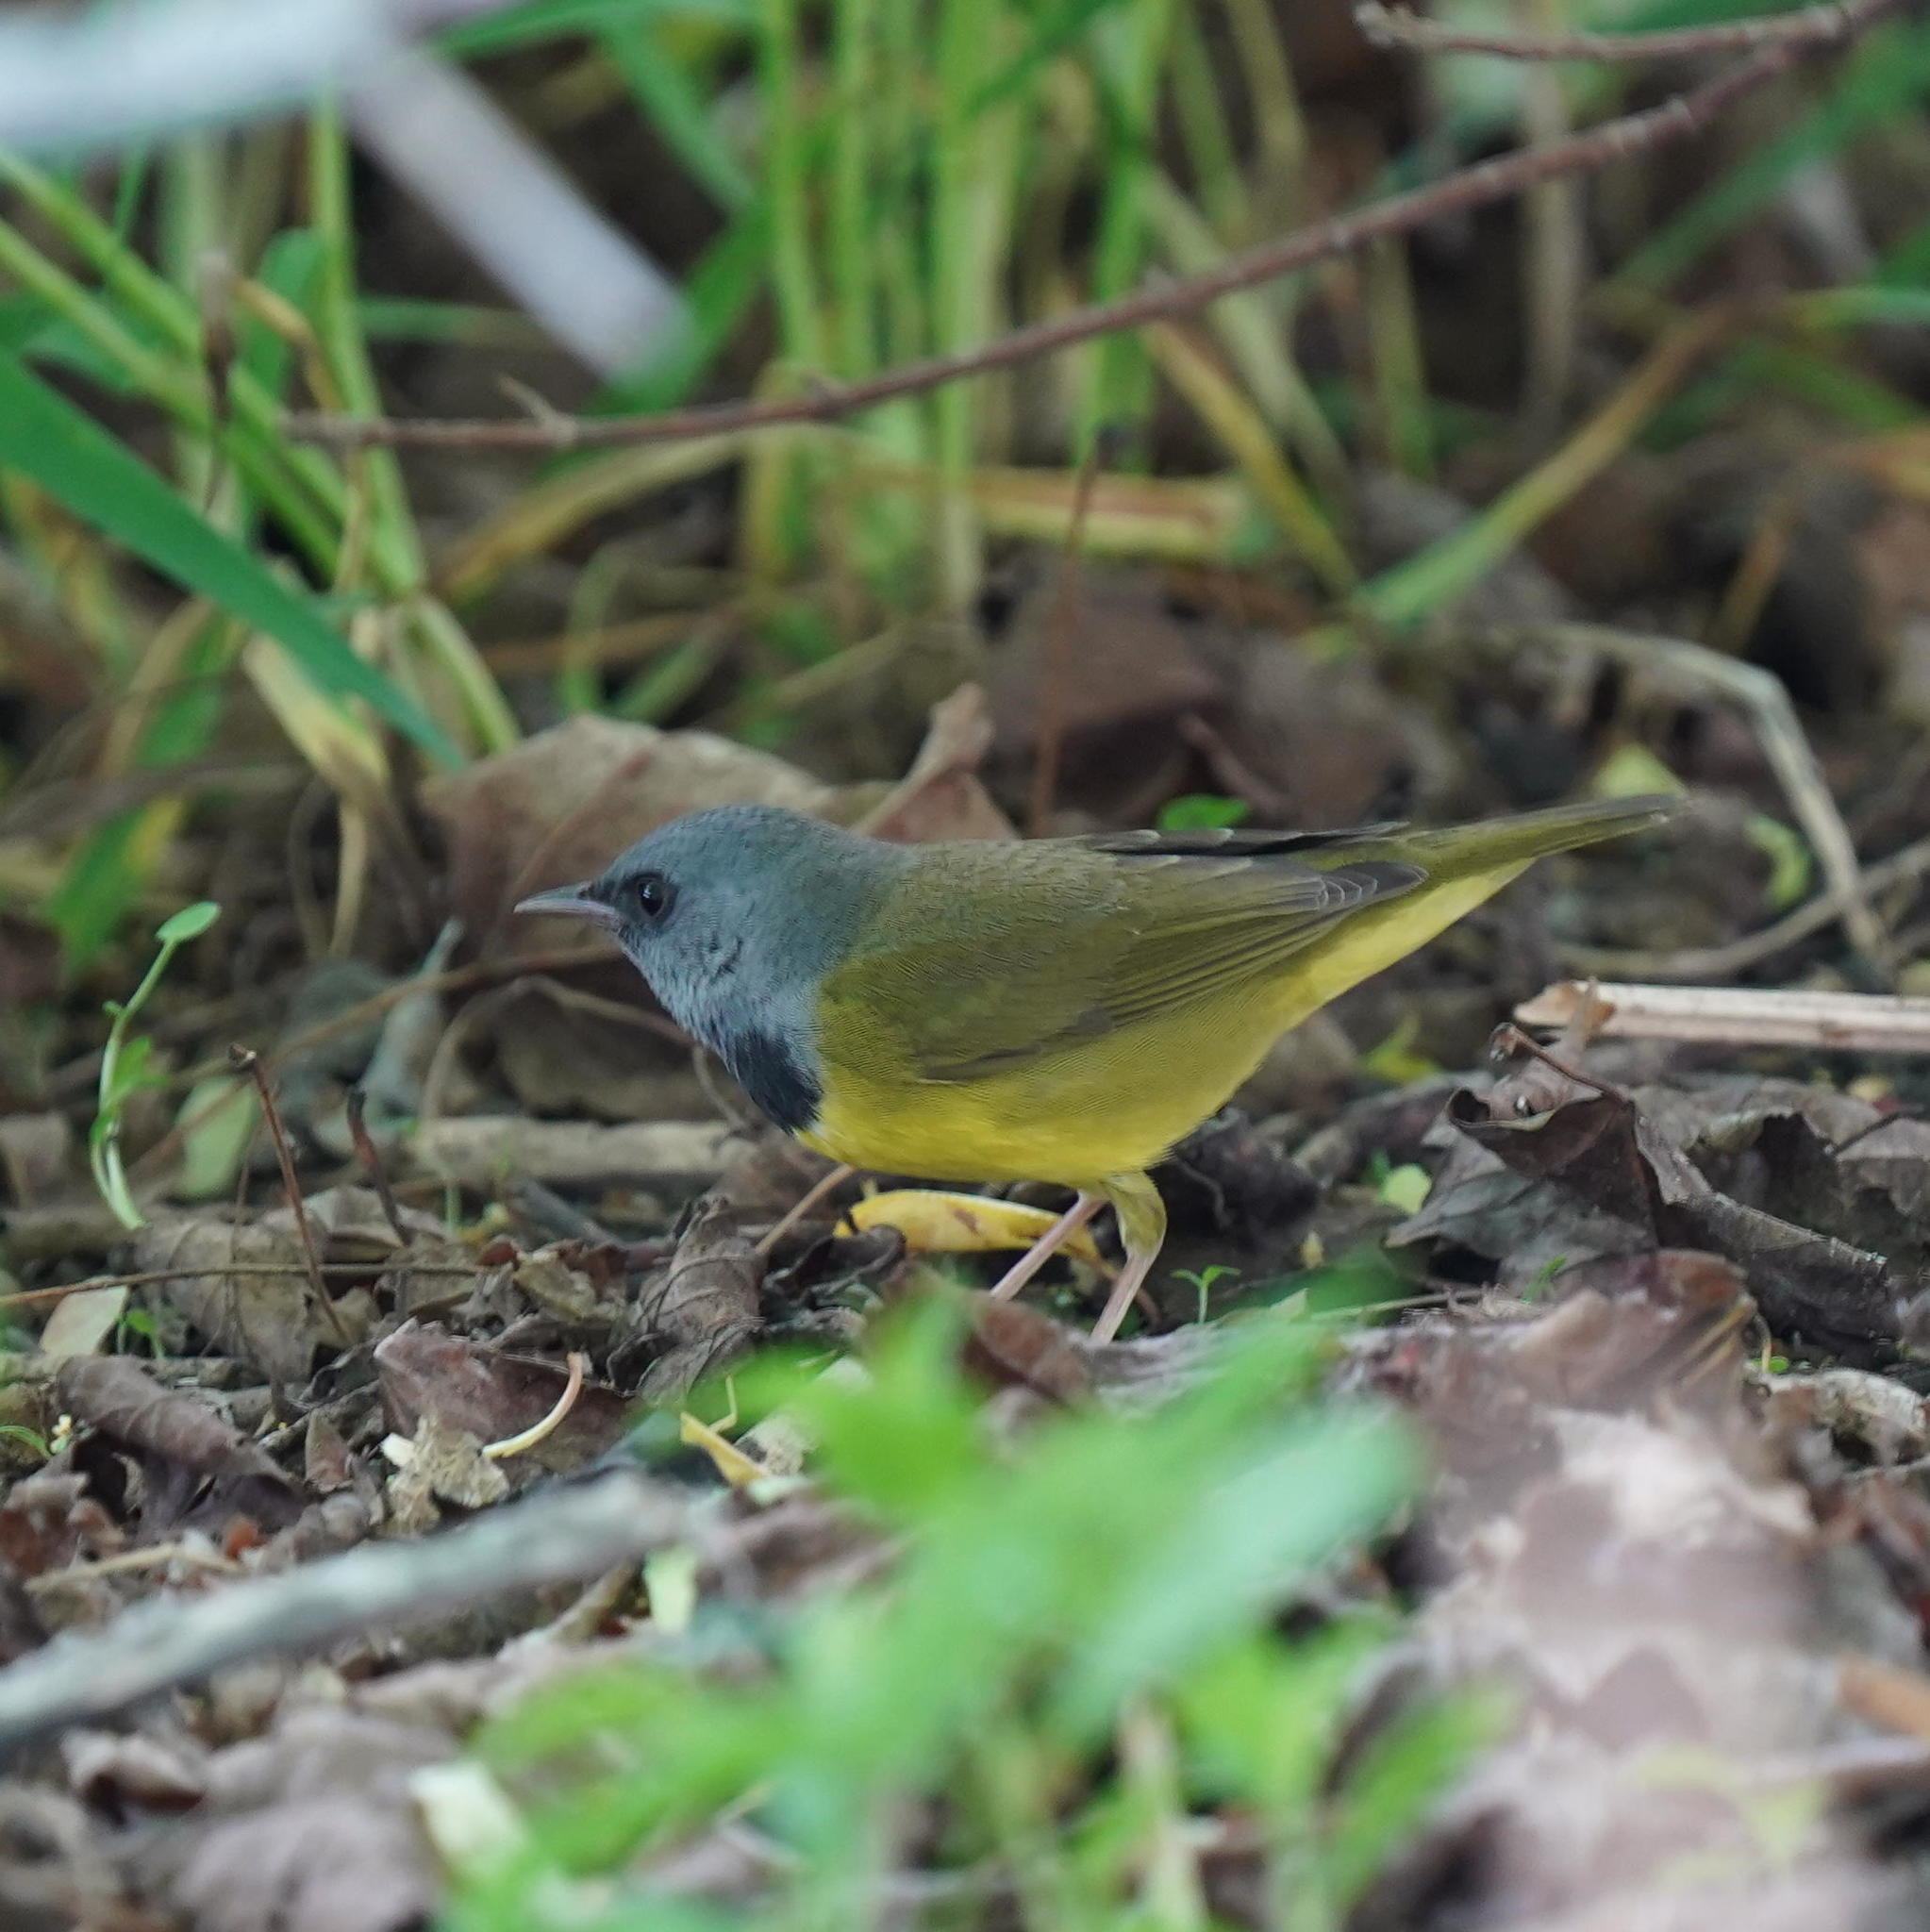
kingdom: Animalia
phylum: Chordata
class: Aves
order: Passeriformes
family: Parulidae
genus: Geothlypis
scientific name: Geothlypis philadelphia
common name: Mourning warbler
